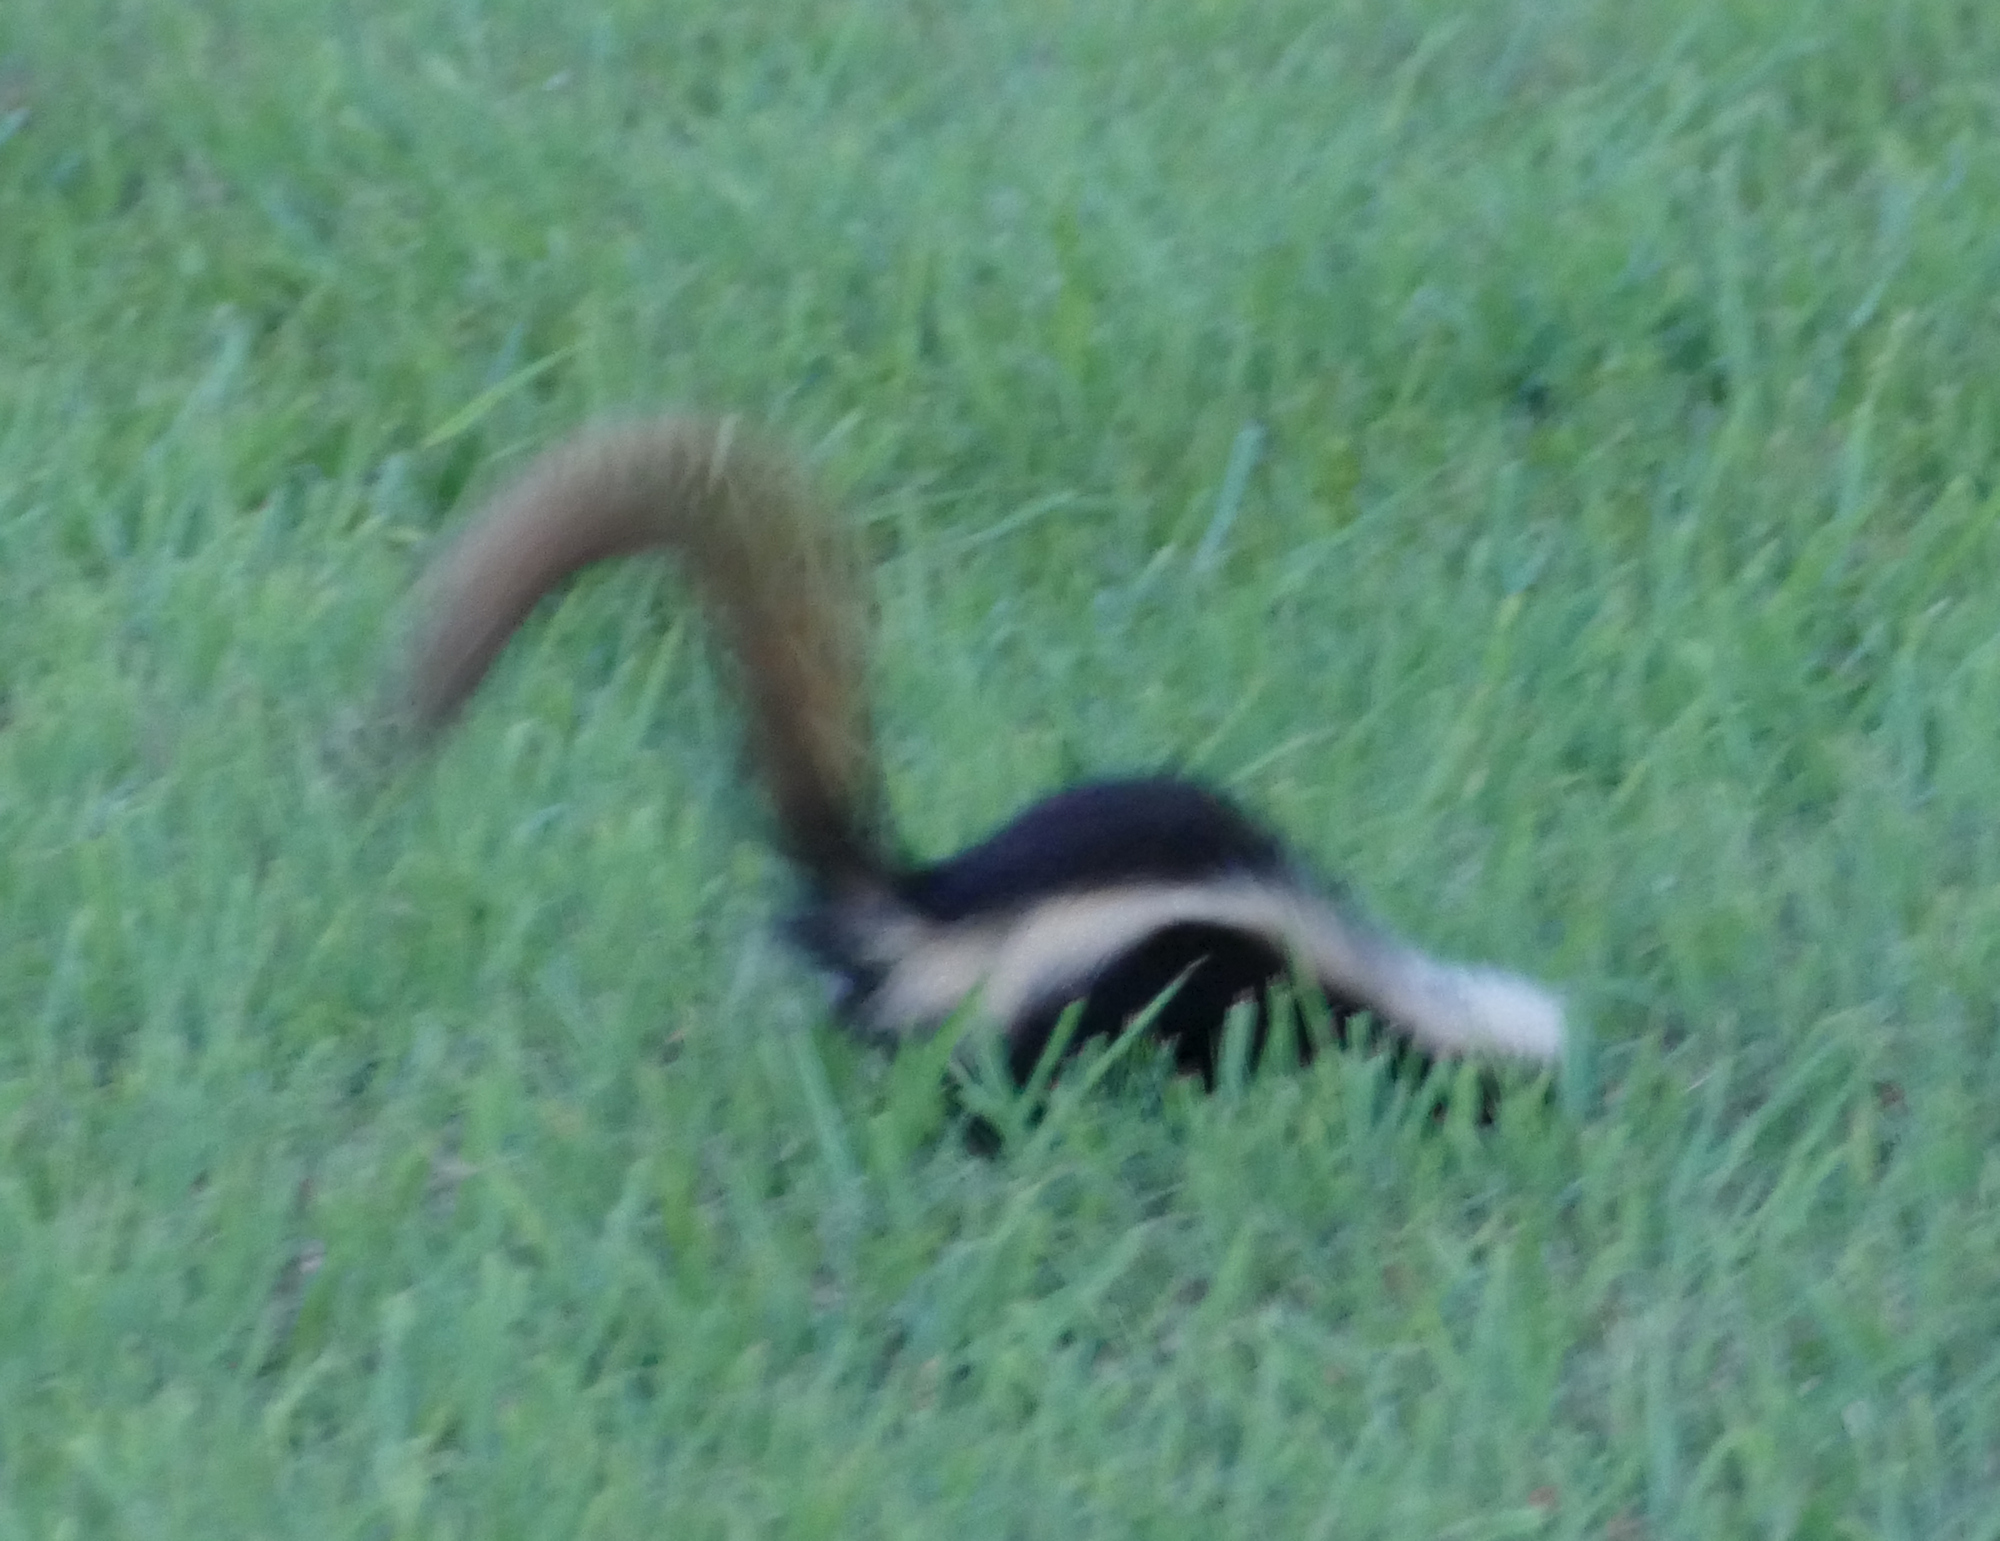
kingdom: Animalia
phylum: Chordata
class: Mammalia
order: Carnivora
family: Mephitidae
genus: Mephitis
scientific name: Mephitis mephitis
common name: Striped skunk
